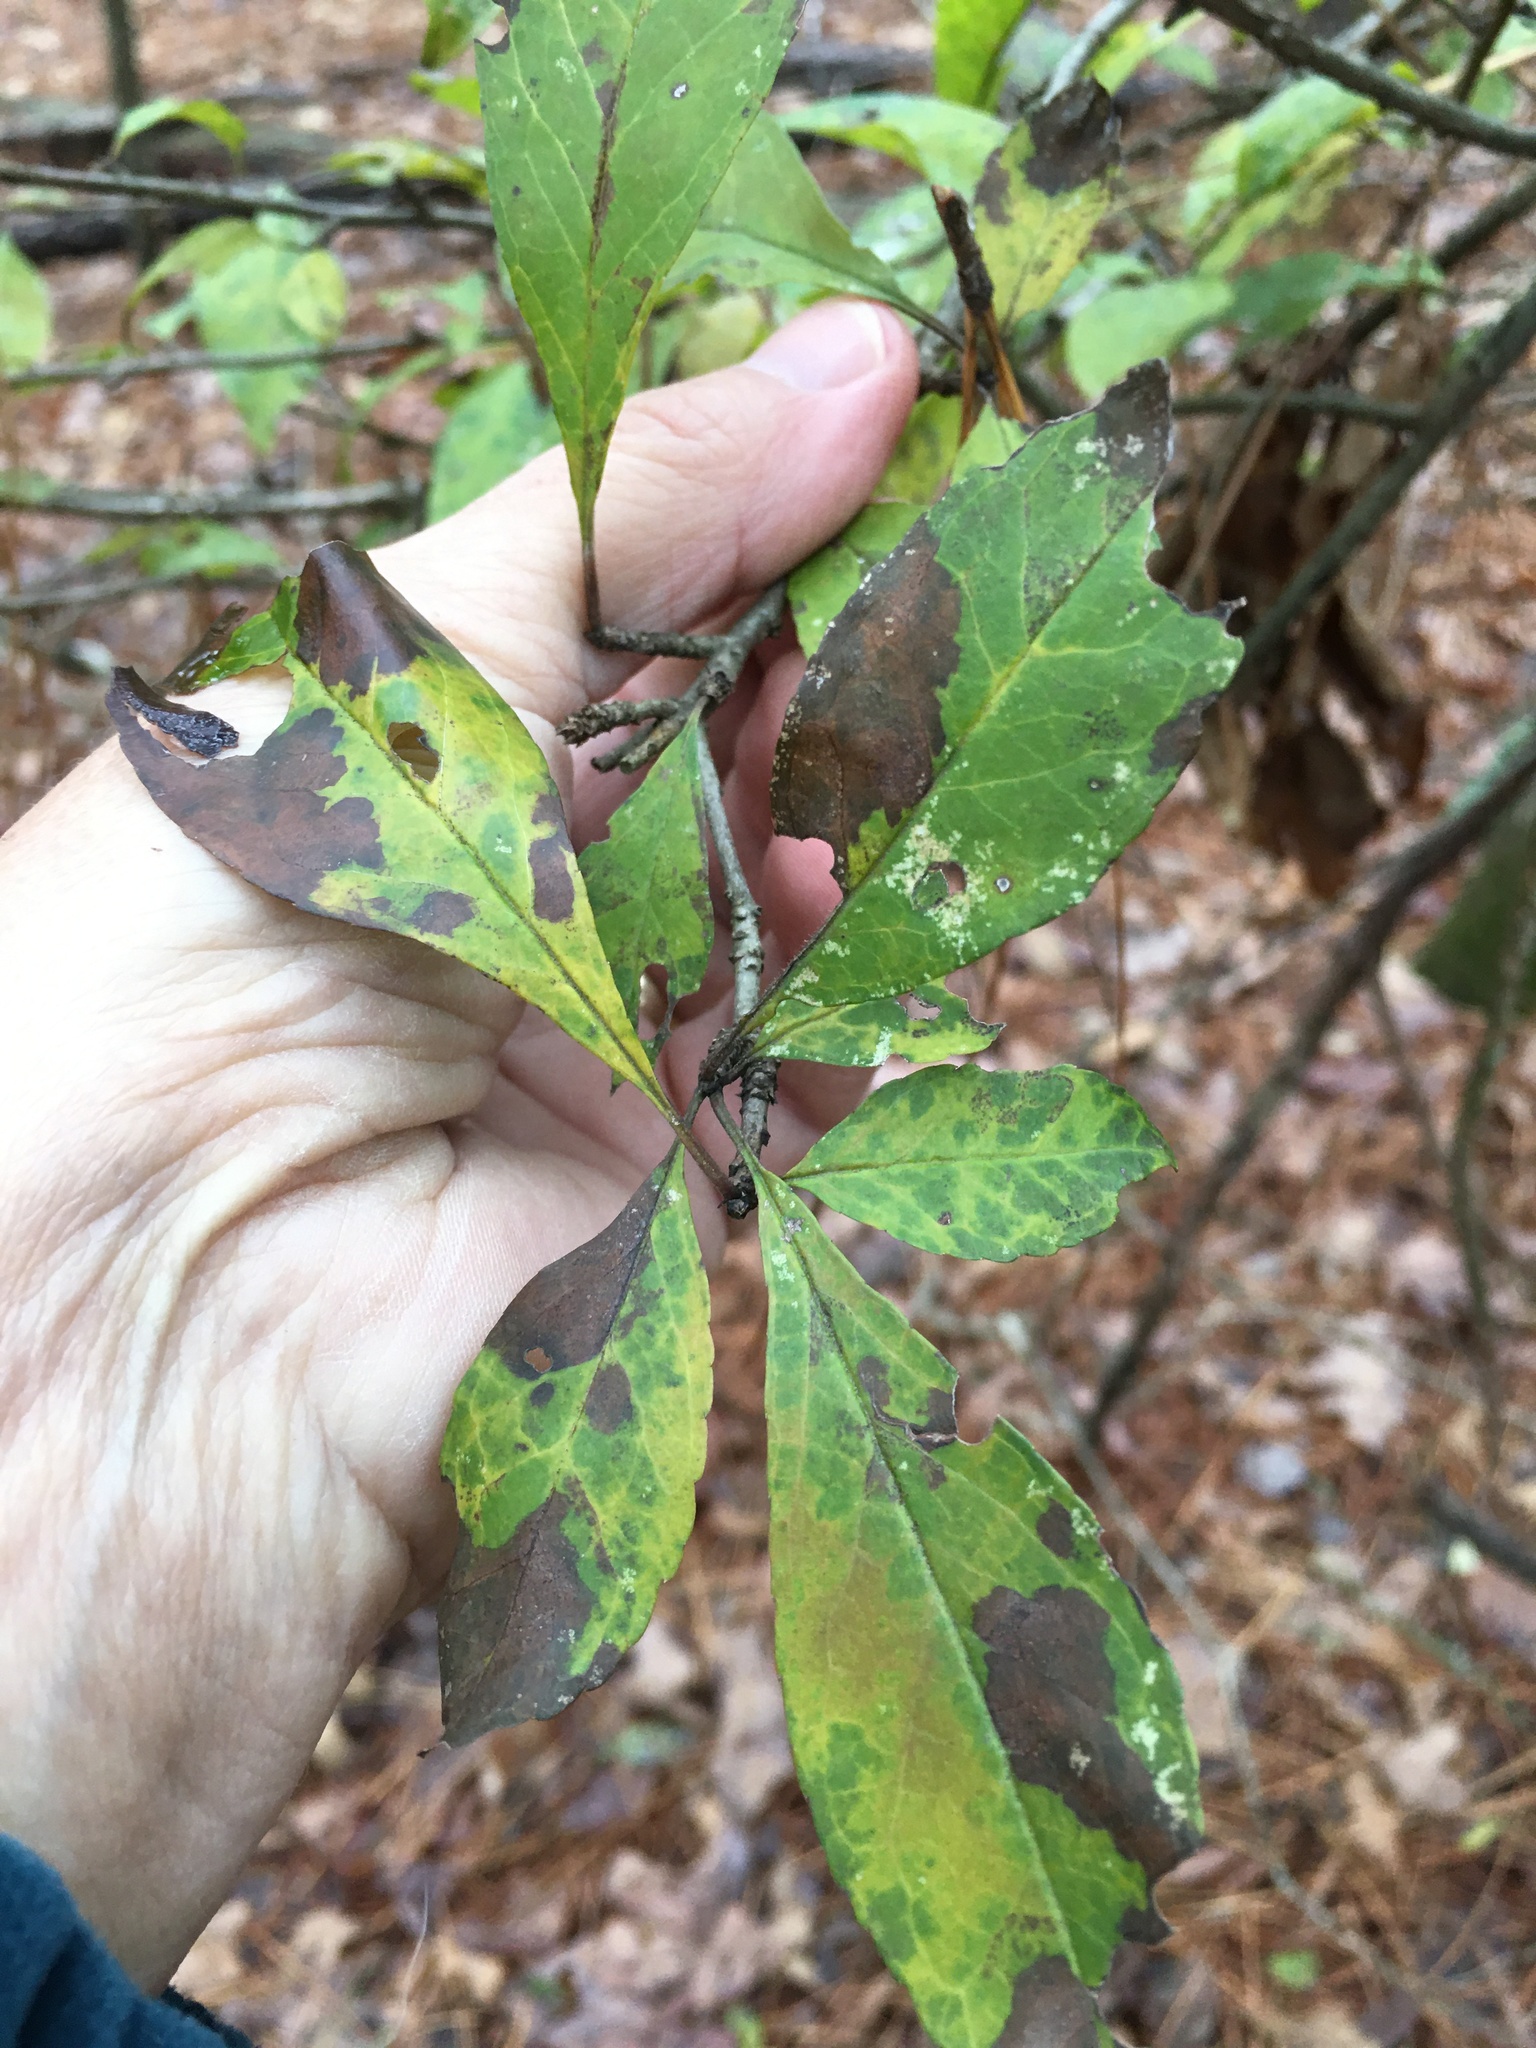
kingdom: Plantae
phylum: Tracheophyta
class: Magnoliopsida
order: Aquifoliales
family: Aquifoliaceae
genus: Ilex
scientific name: Ilex decidua
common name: Possum-haw
